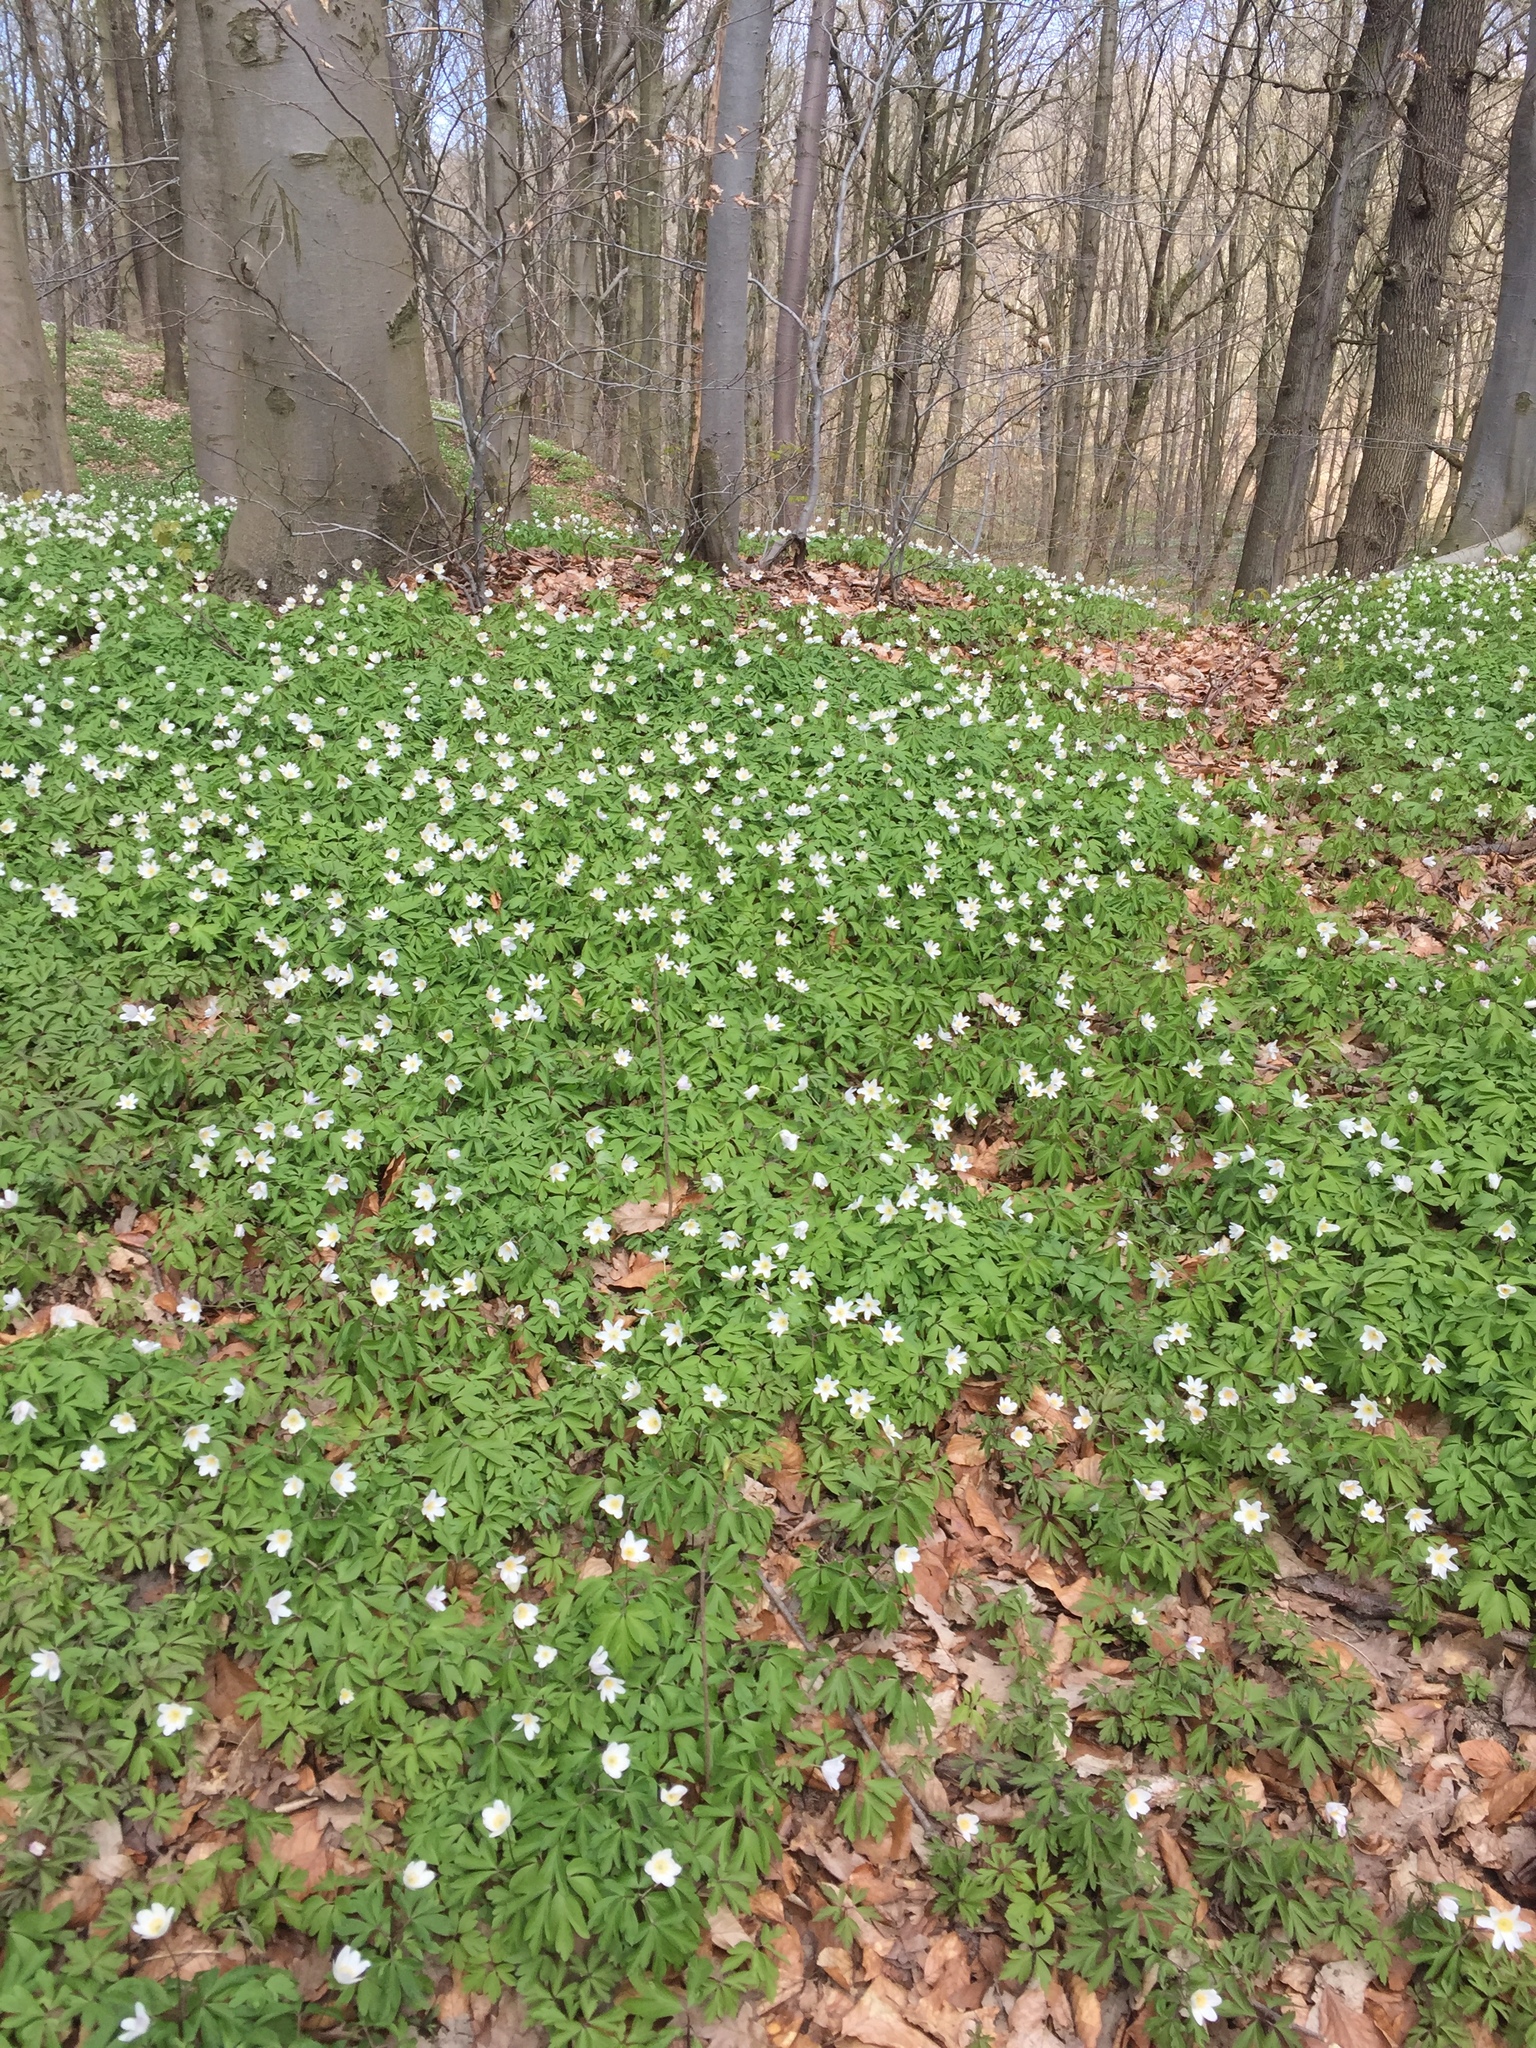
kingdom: Plantae
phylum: Tracheophyta
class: Magnoliopsida
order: Ranunculales
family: Ranunculaceae
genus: Anemone
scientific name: Anemone nemorosa
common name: Wood anemone
